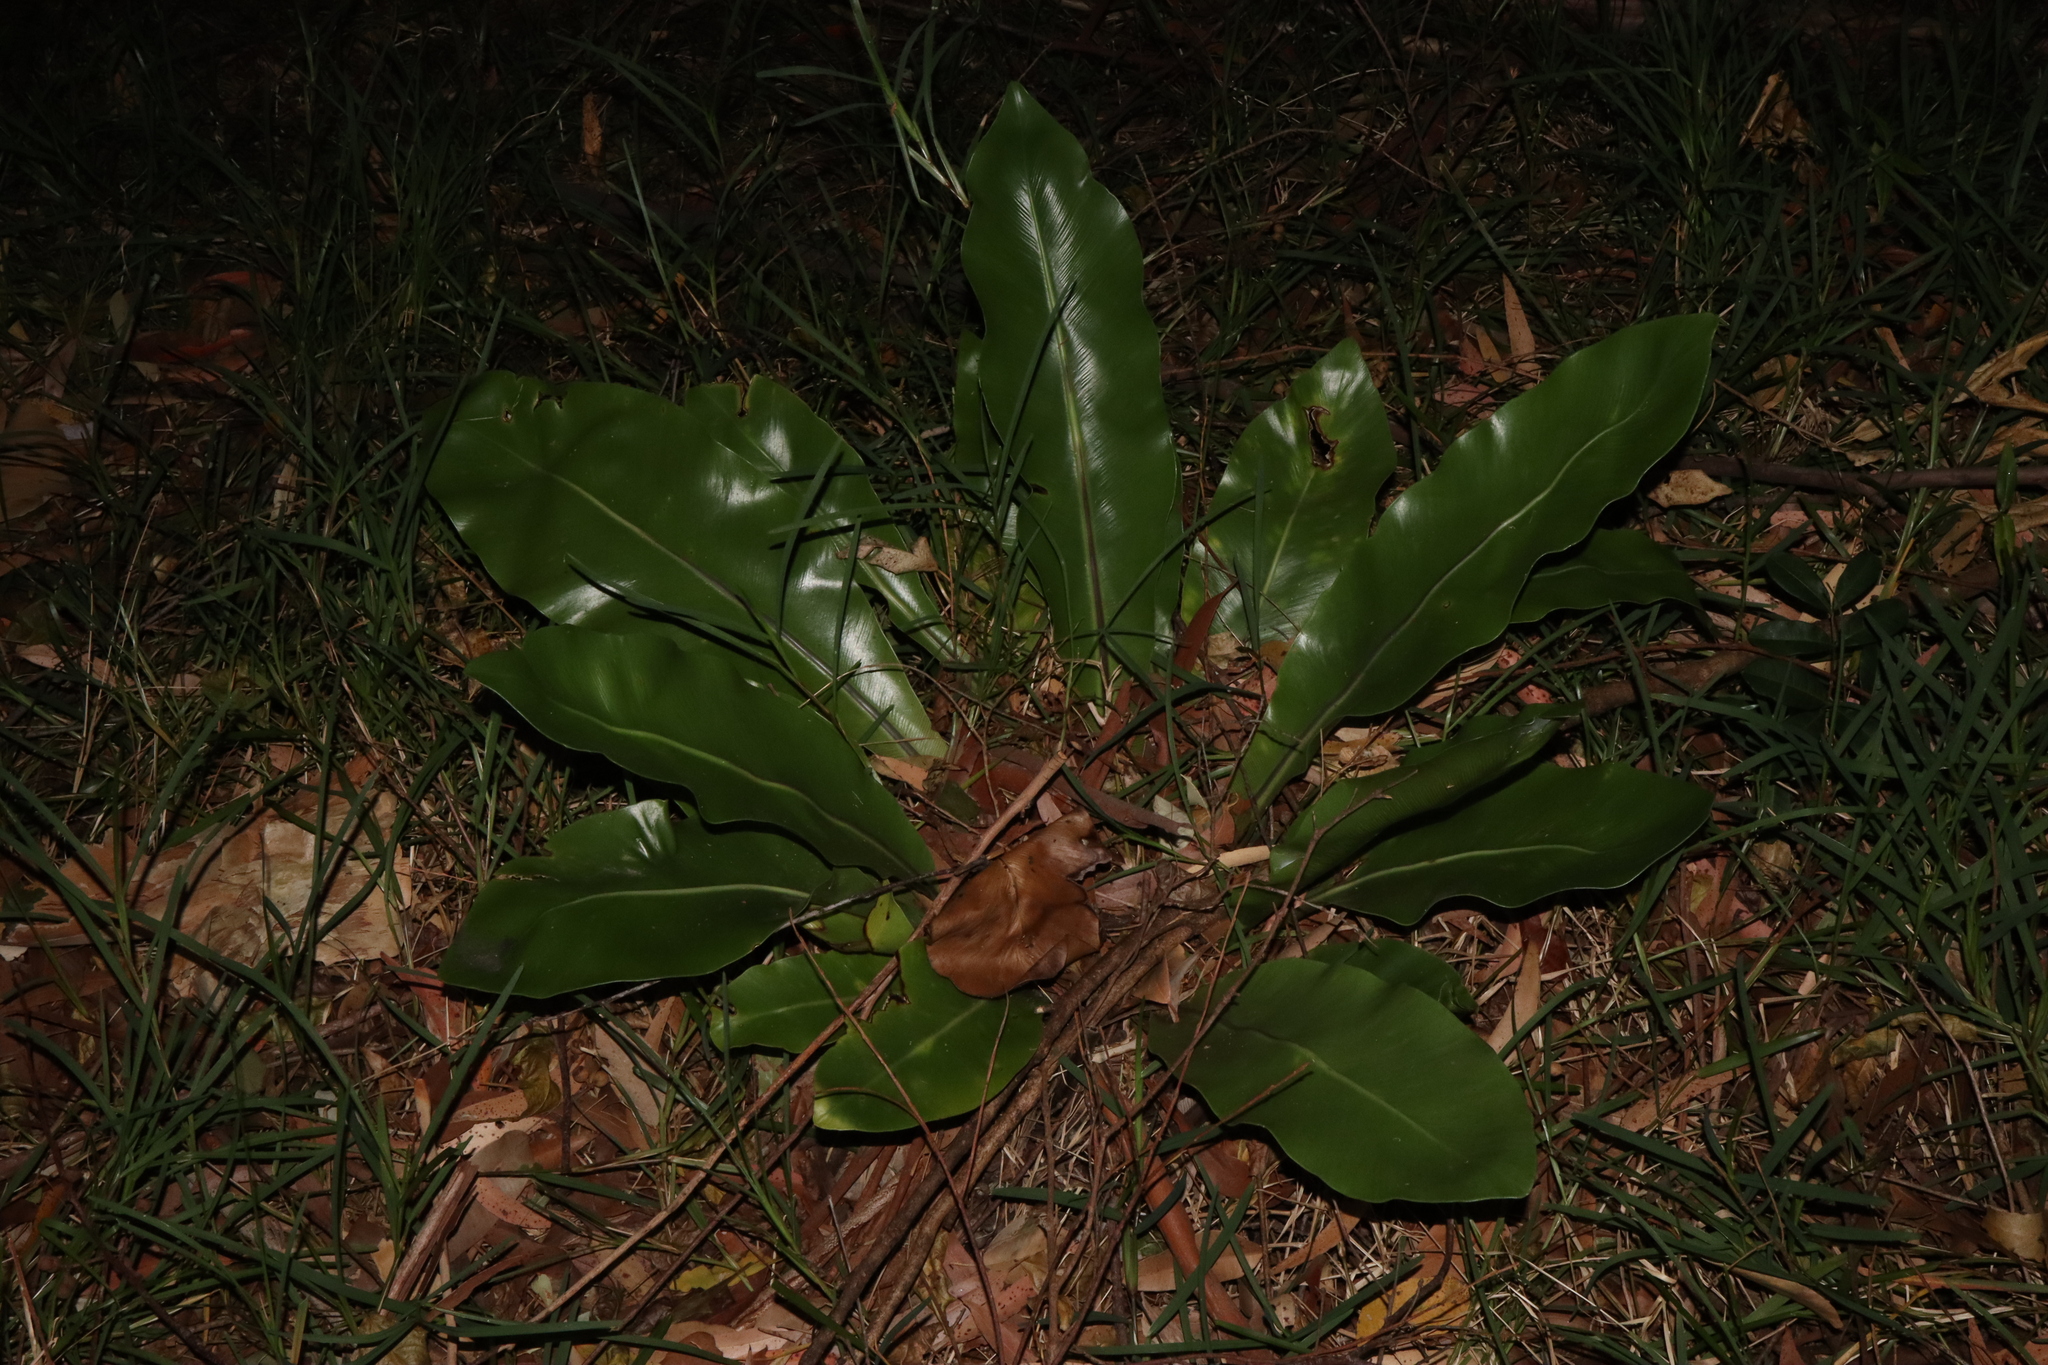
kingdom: Plantae
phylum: Tracheophyta
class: Polypodiopsida
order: Polypodiales
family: Aspleniaceae
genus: Asplenium
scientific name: Asplenium australasicum
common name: Bird's-nest fern
